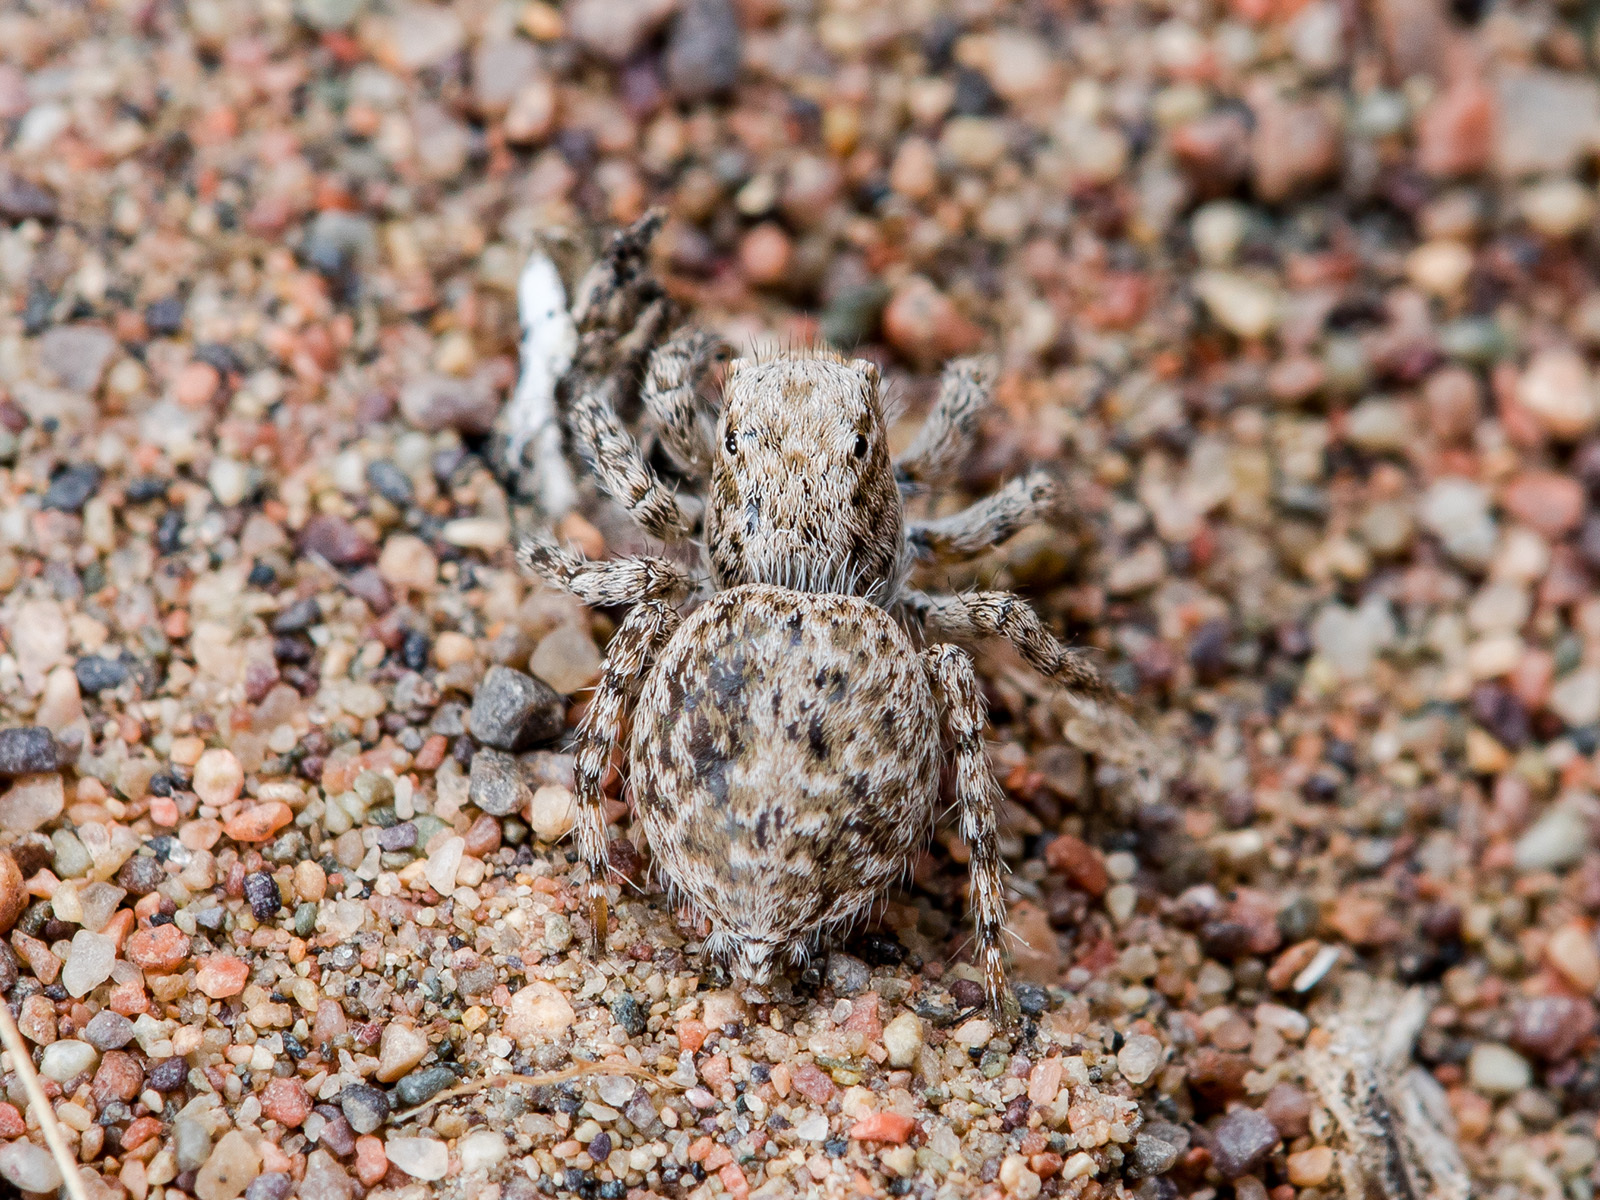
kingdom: Animalia
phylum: Arthropoda
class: Arachnida
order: Araneae
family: Salticidae
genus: Aelurillus
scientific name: Aelurillus andreevae
